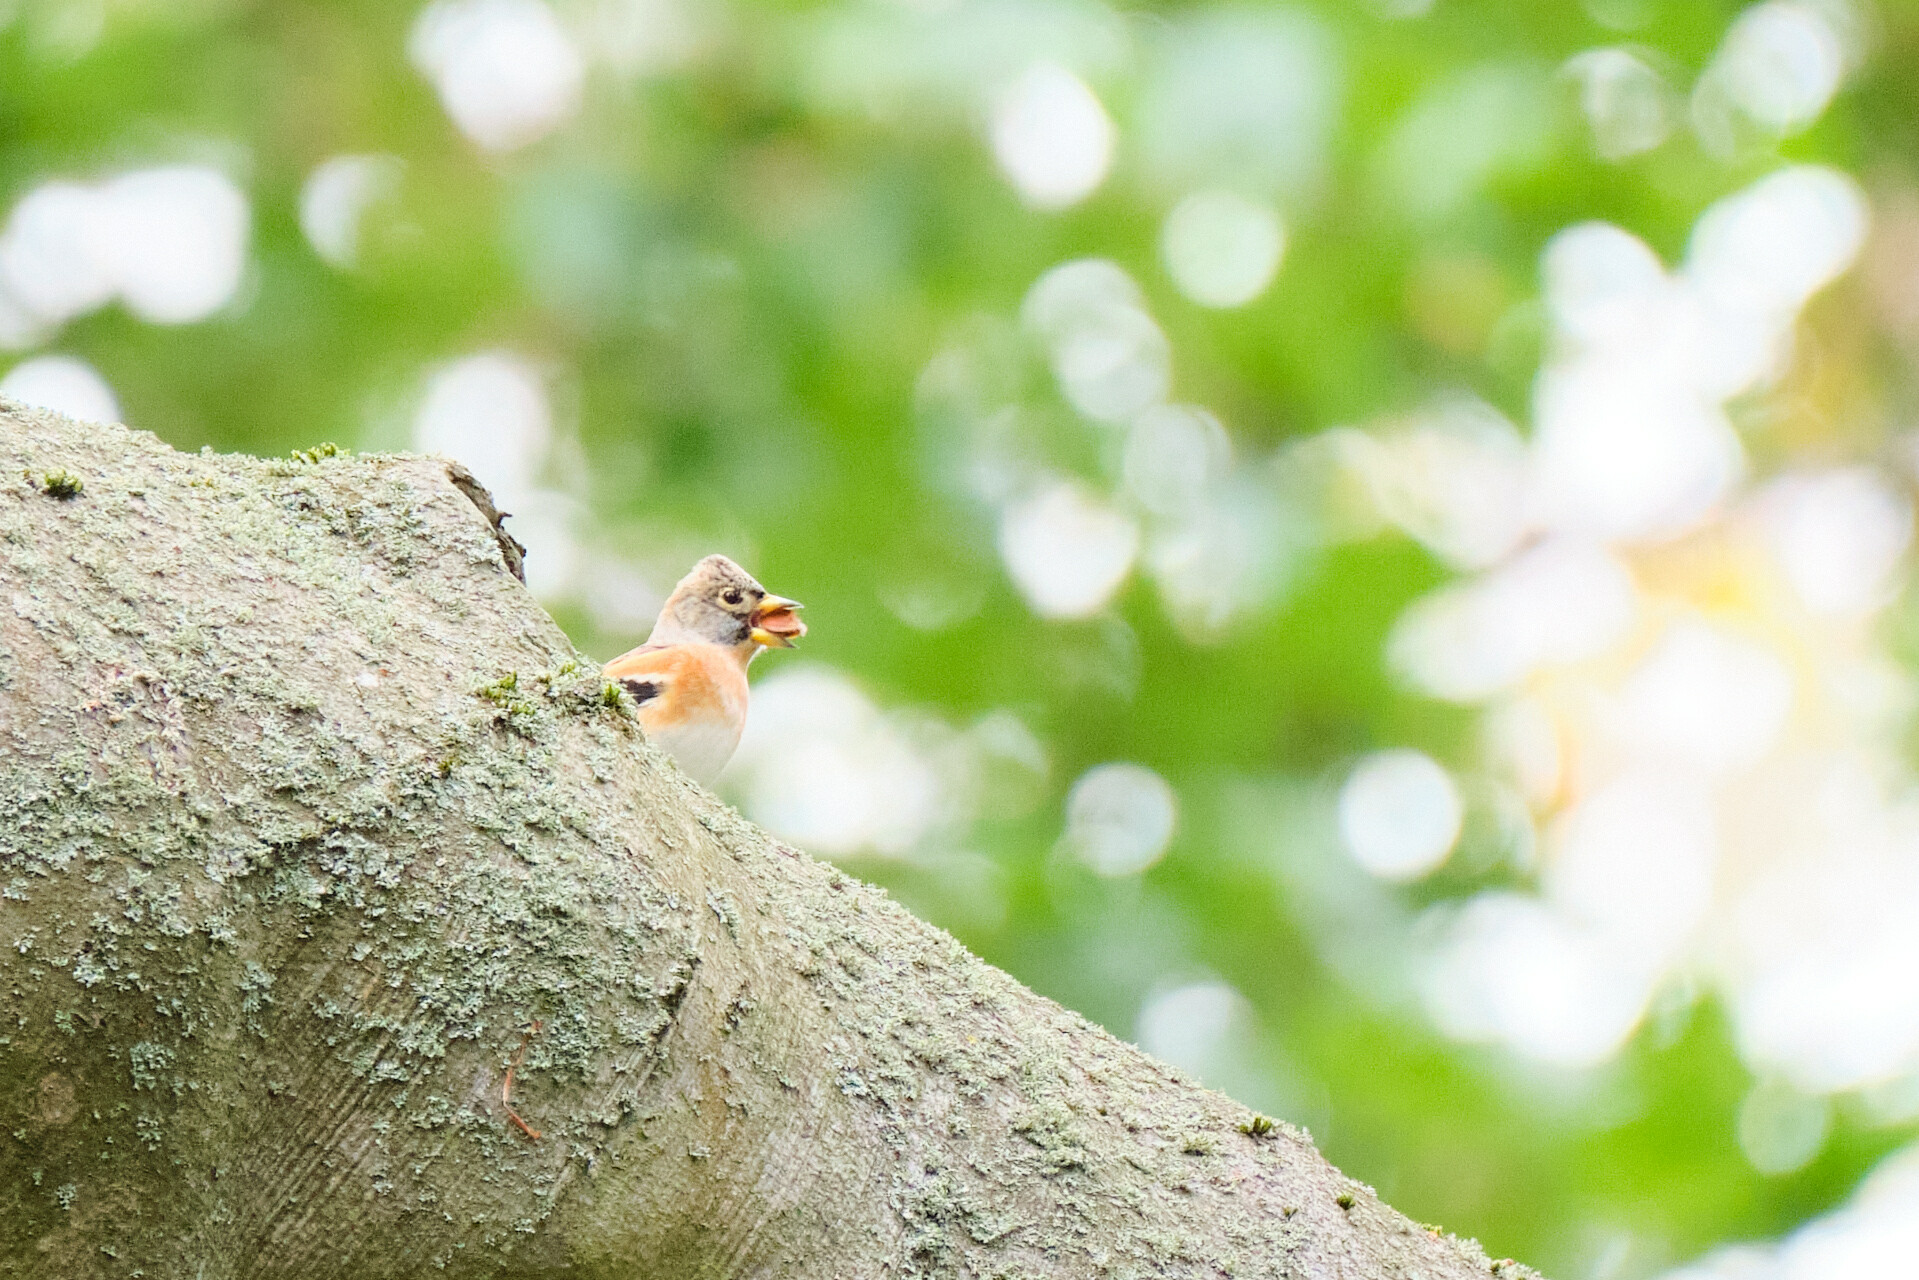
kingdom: Animalia
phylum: Chordata
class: Aves
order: Passeriformes
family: Fringillidae
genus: Fringilla
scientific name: Fringilla montifringilla
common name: Brambling
